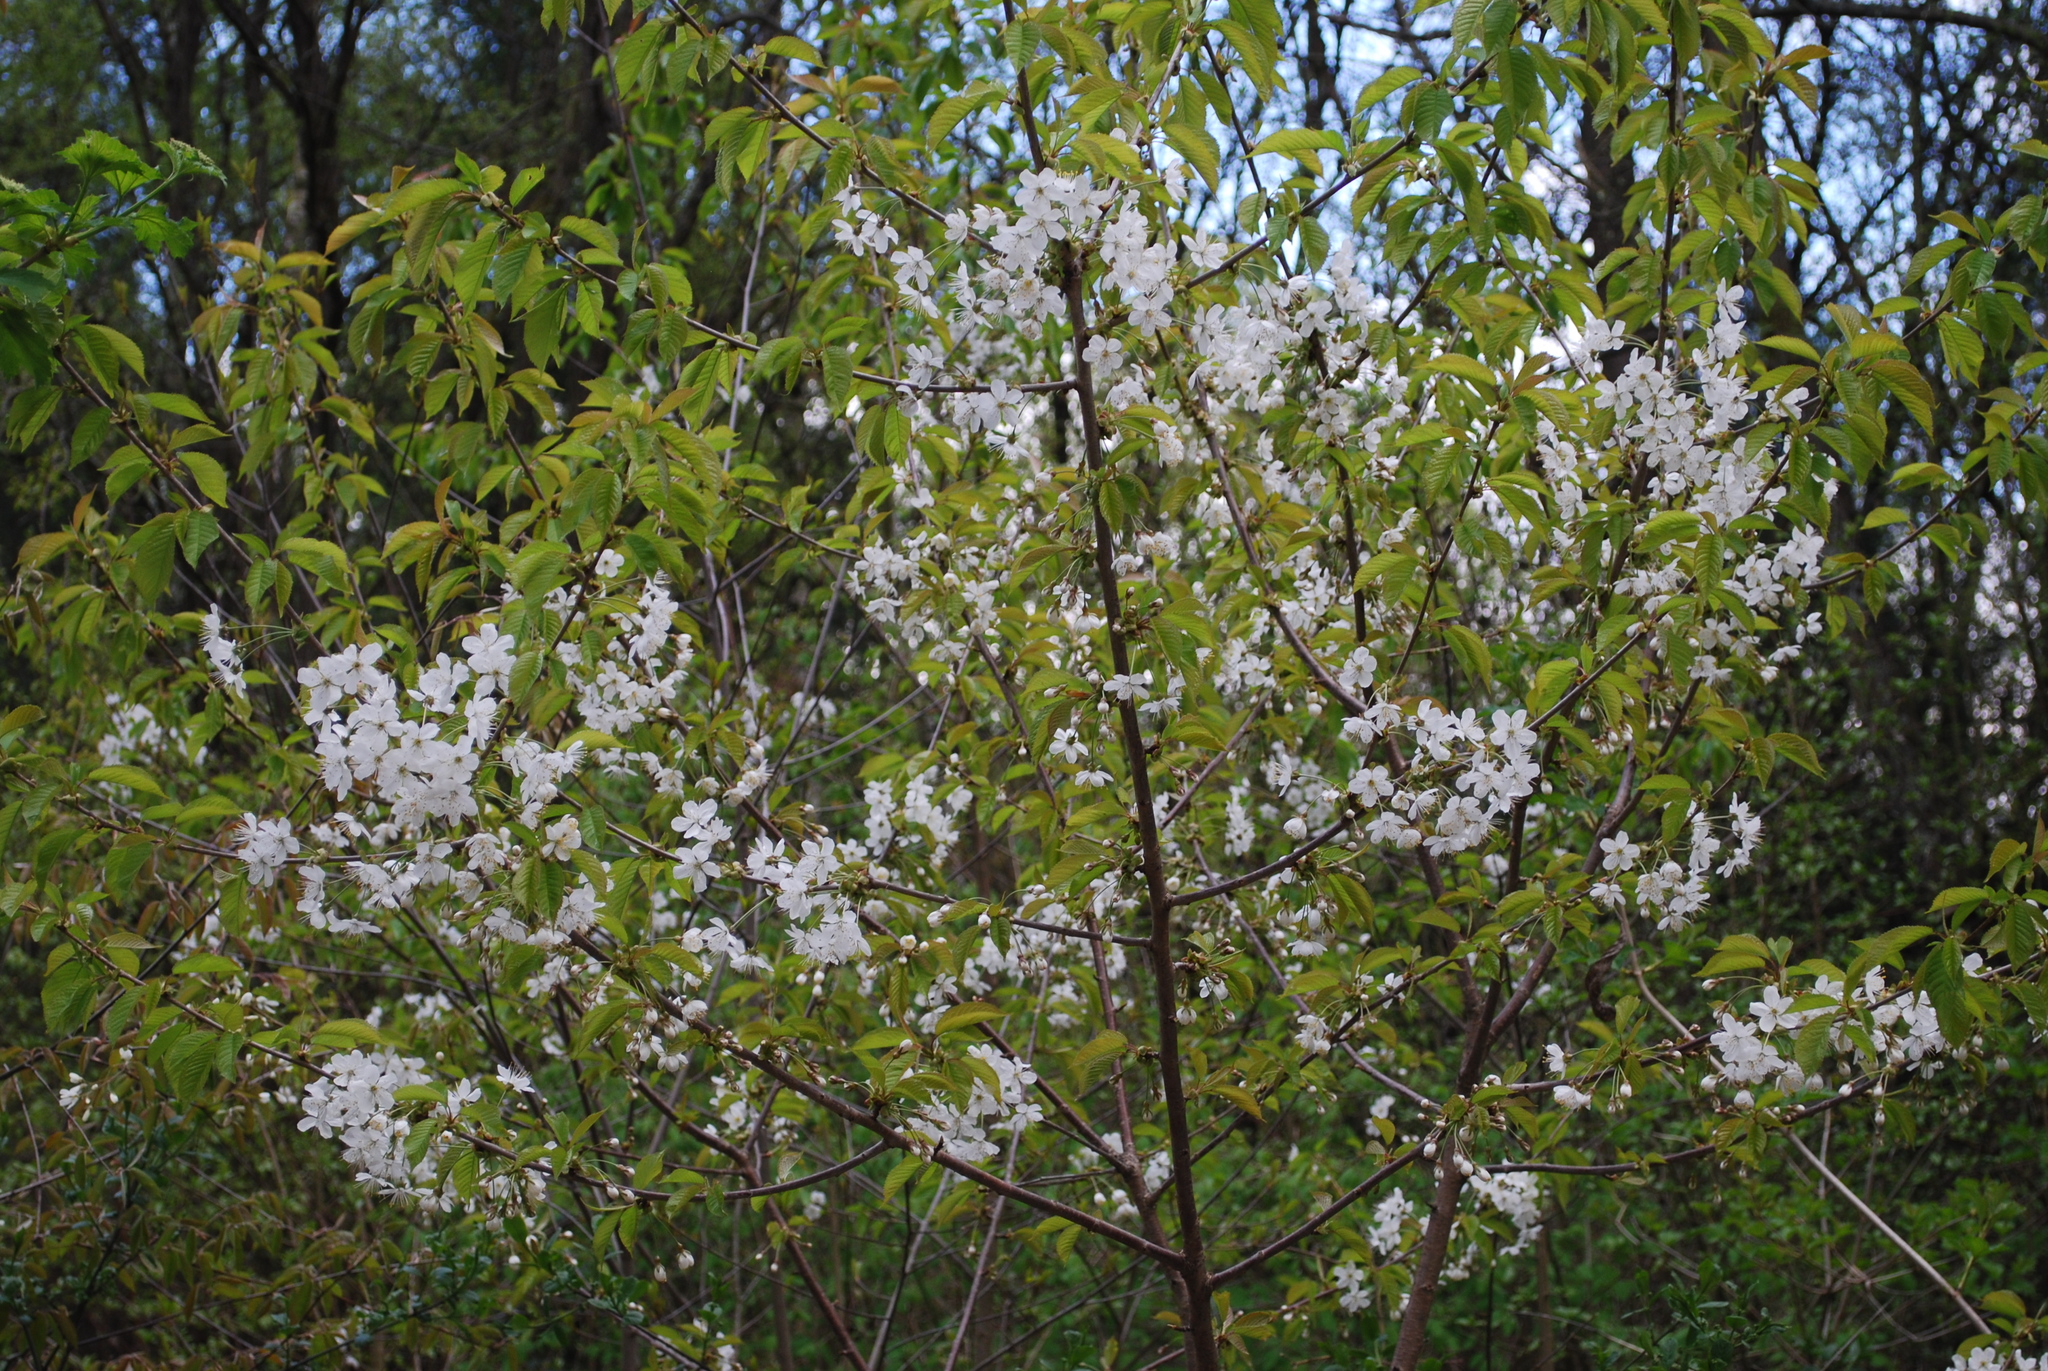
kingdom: Plantae
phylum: Tracheophyta
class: Magnoliopsida
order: Rosales
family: Rosaceae
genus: Prunus
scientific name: Prunus avium
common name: Sweet cherry
